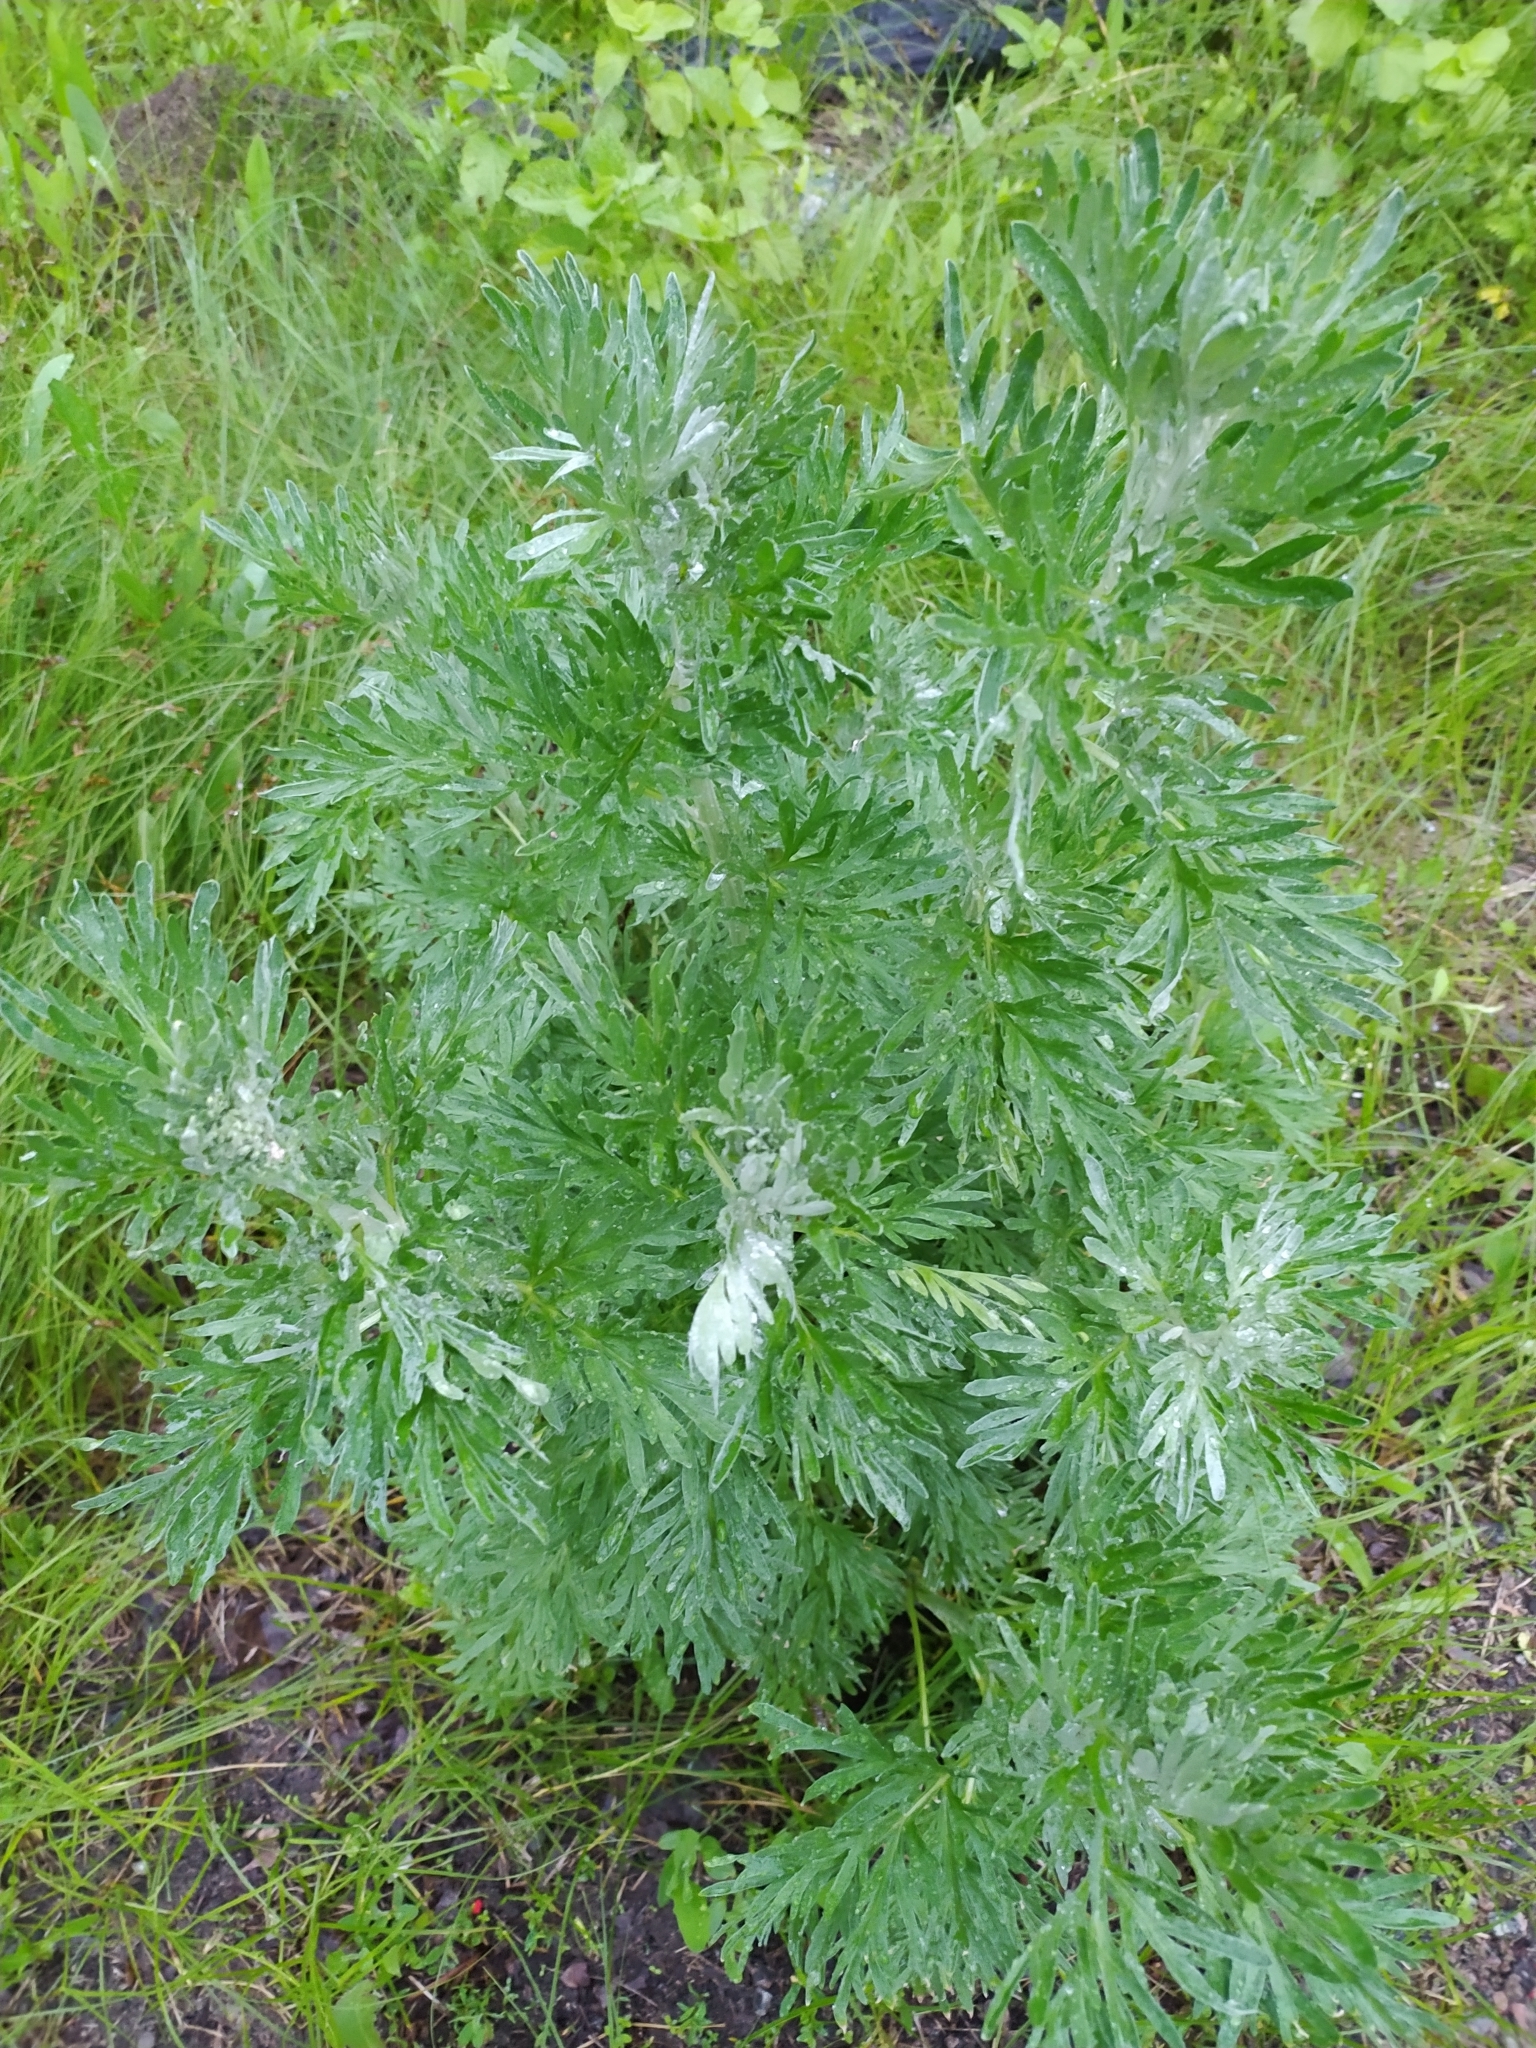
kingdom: Plantae
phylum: Tracheophyta
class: Magnoliopsida
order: Asterales
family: Asteraceae
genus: Artemisia
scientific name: Artemisia absinthium
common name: Wormwood
